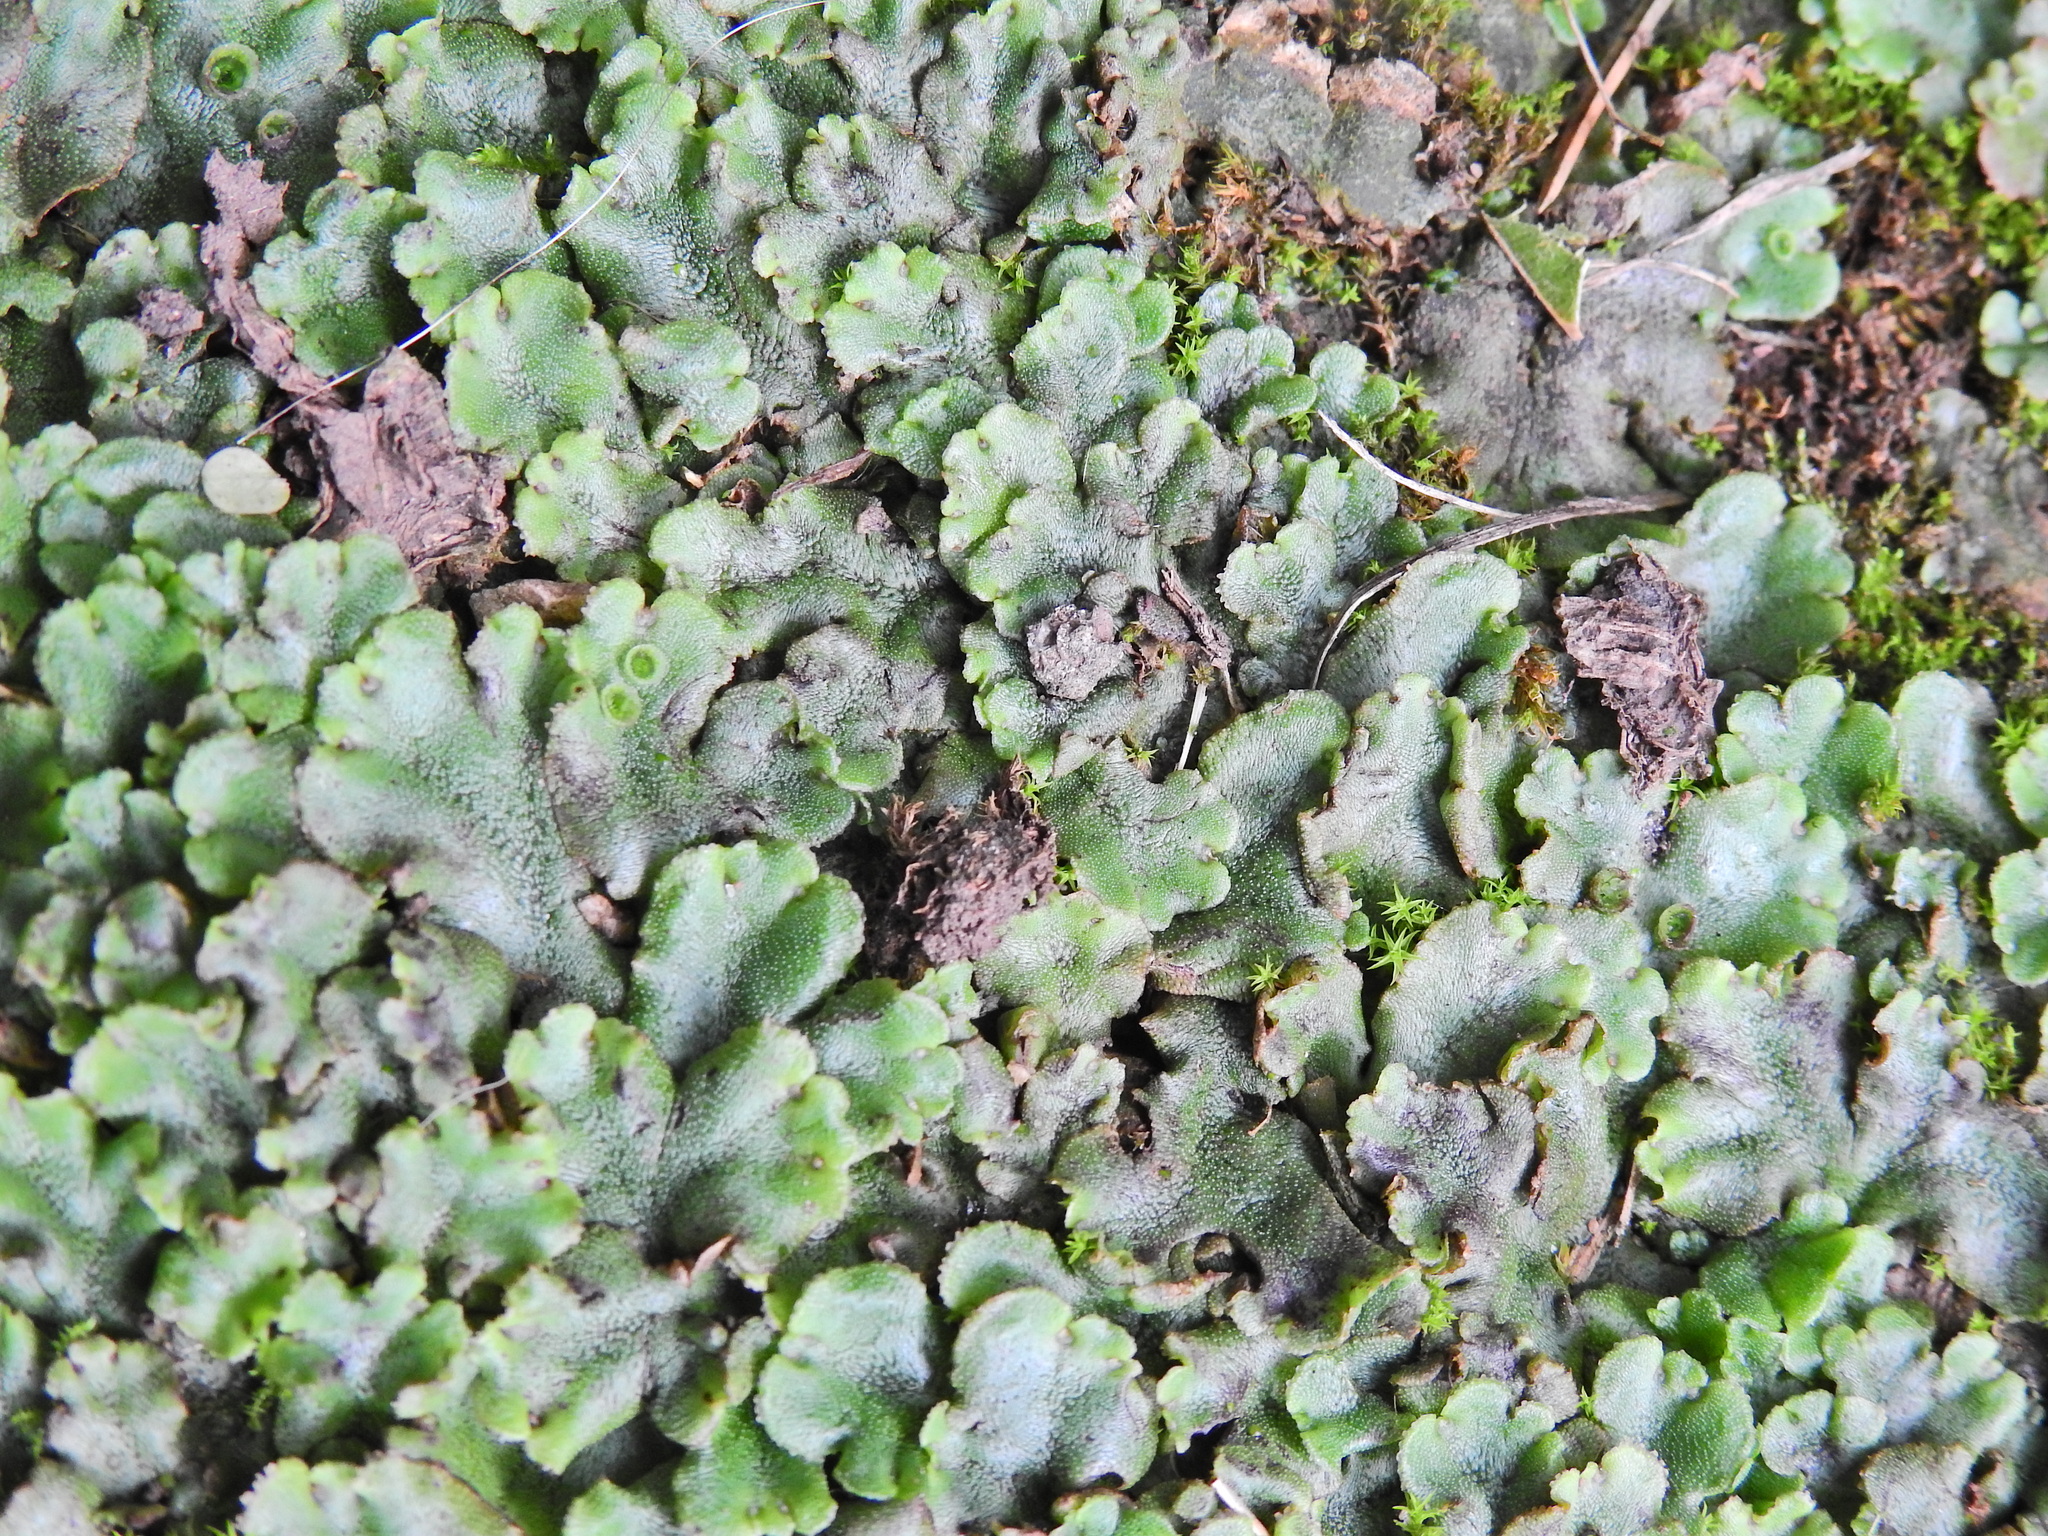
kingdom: Plantae
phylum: Marchantiophyta
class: Marchantiopsida
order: Marchantiales
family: Marchantiaceae
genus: Marchantia
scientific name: Marchantia polymorpha
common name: Common liverwort
